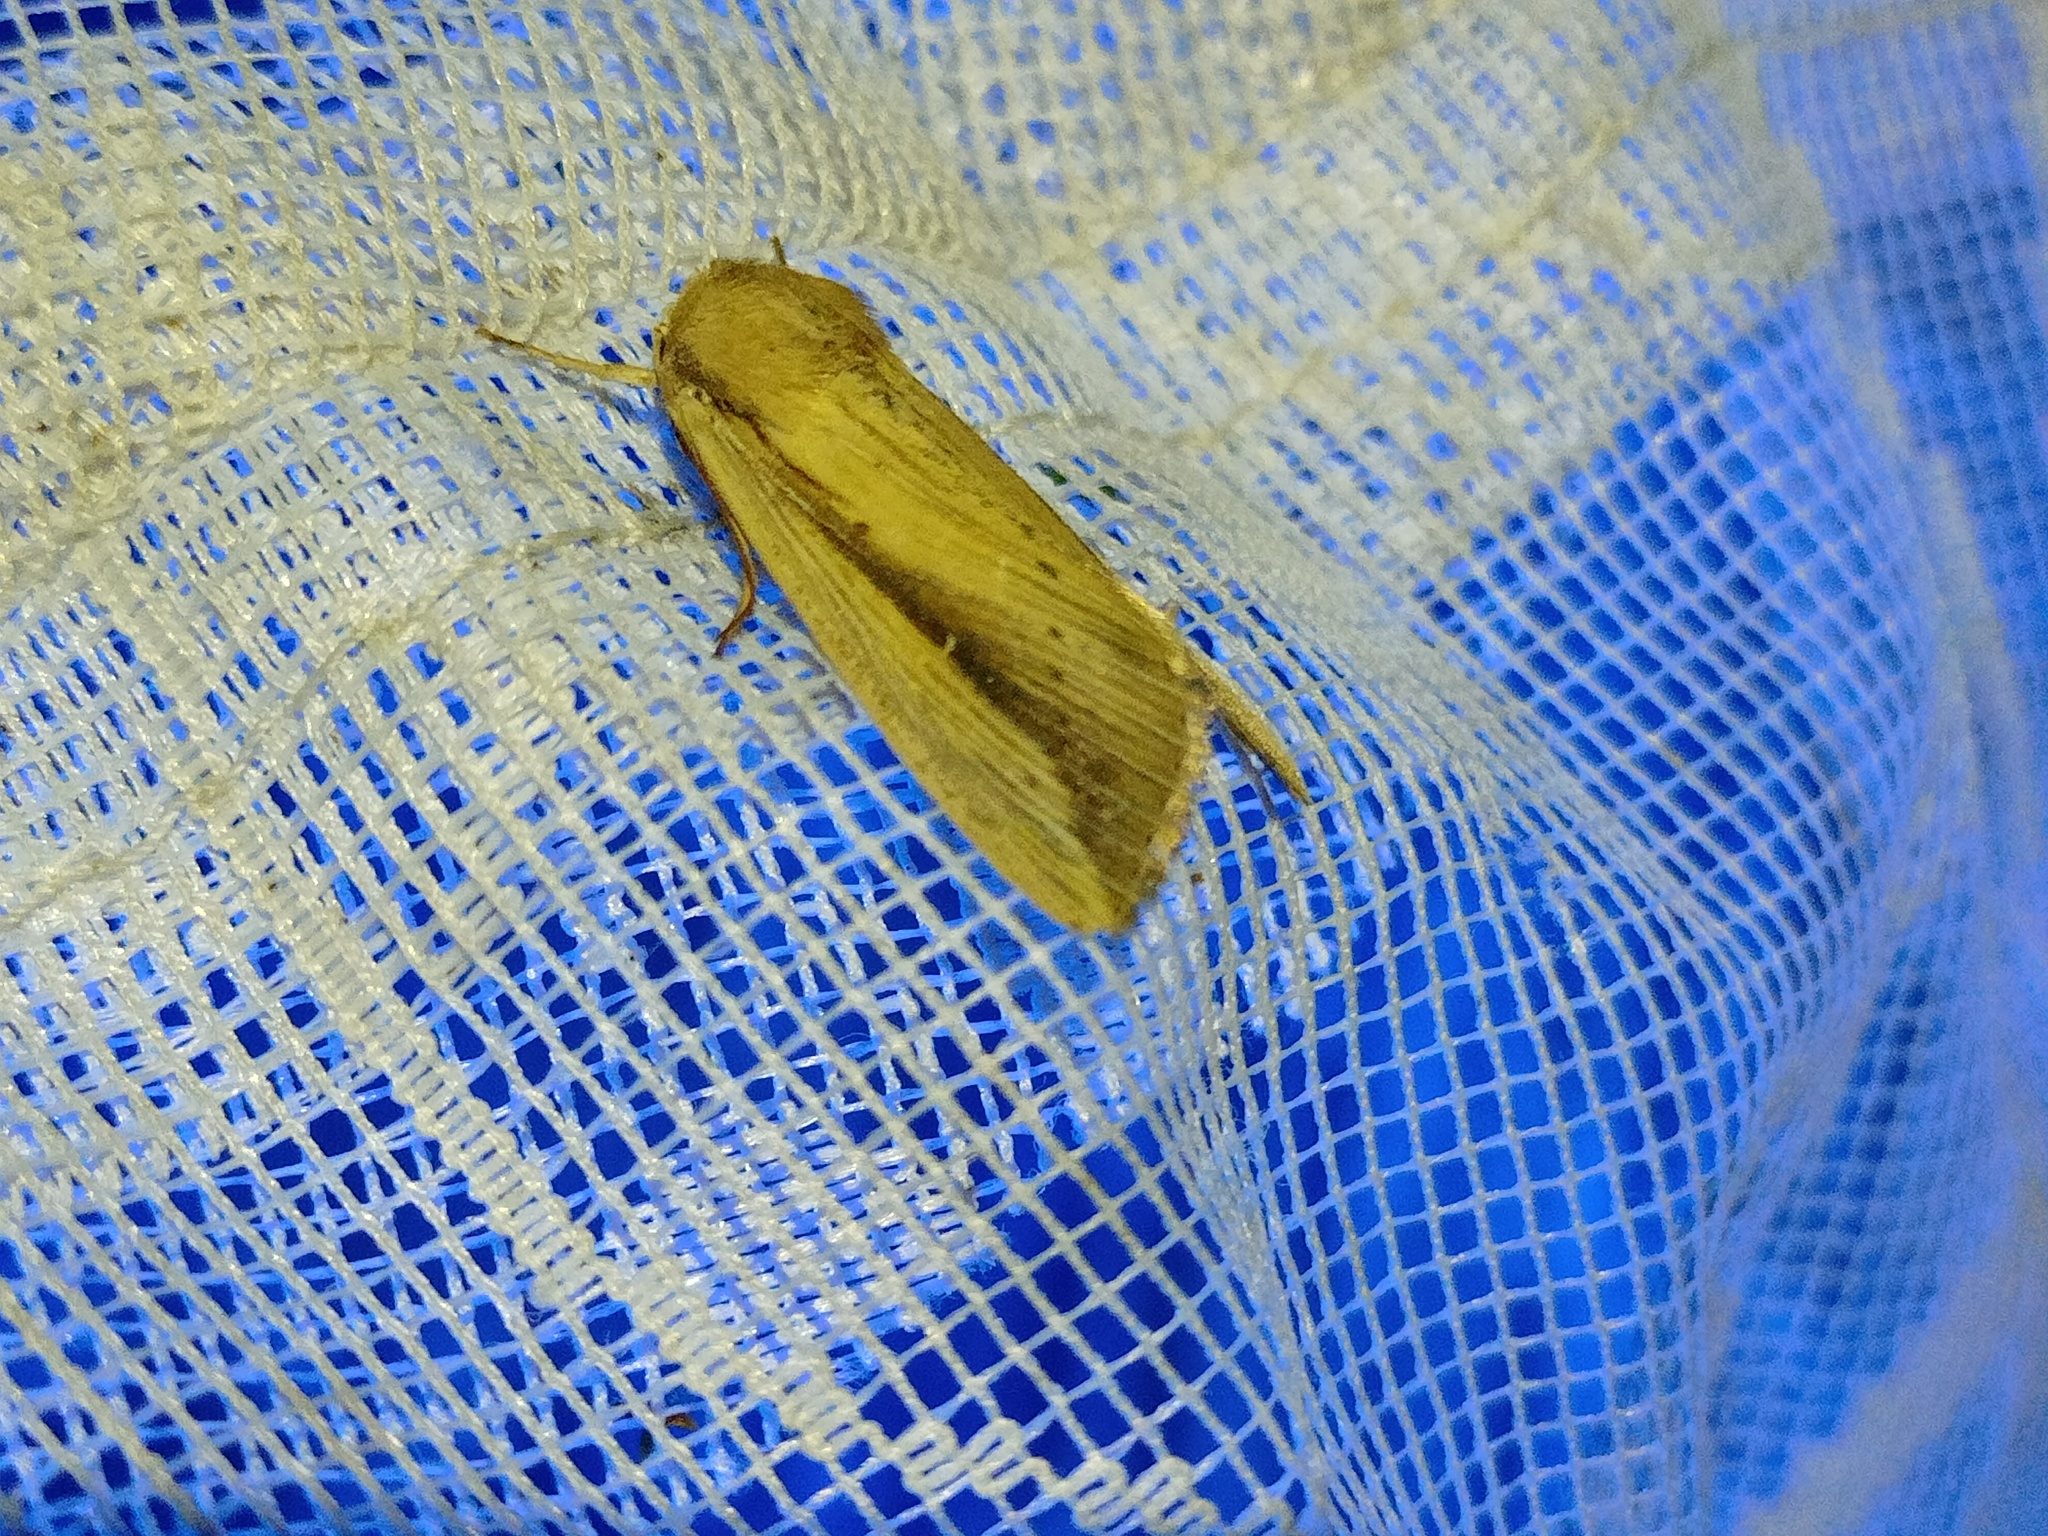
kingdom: Animalia
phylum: Arthropoda
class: Insecta
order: Lepidoptera
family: Noctuidae
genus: Leucania
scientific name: Leucania loreyi
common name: The cosmopolitan
